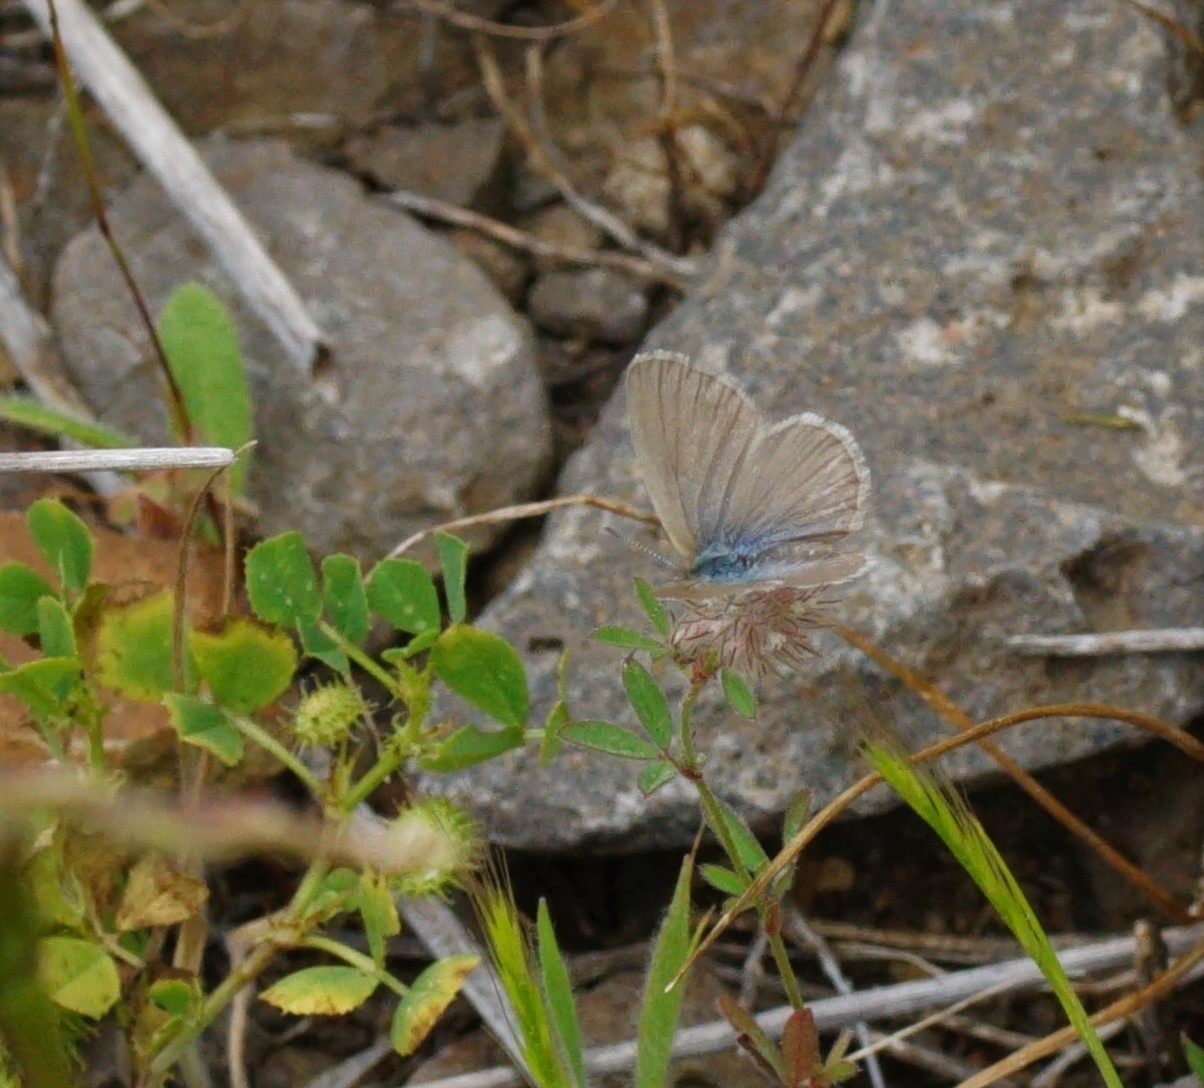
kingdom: Animalia
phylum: Arthropoda
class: Insecta
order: Lepidoptera
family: Lycaenidae
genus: Zizina
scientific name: Zizina otis
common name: Lesser grass blue
